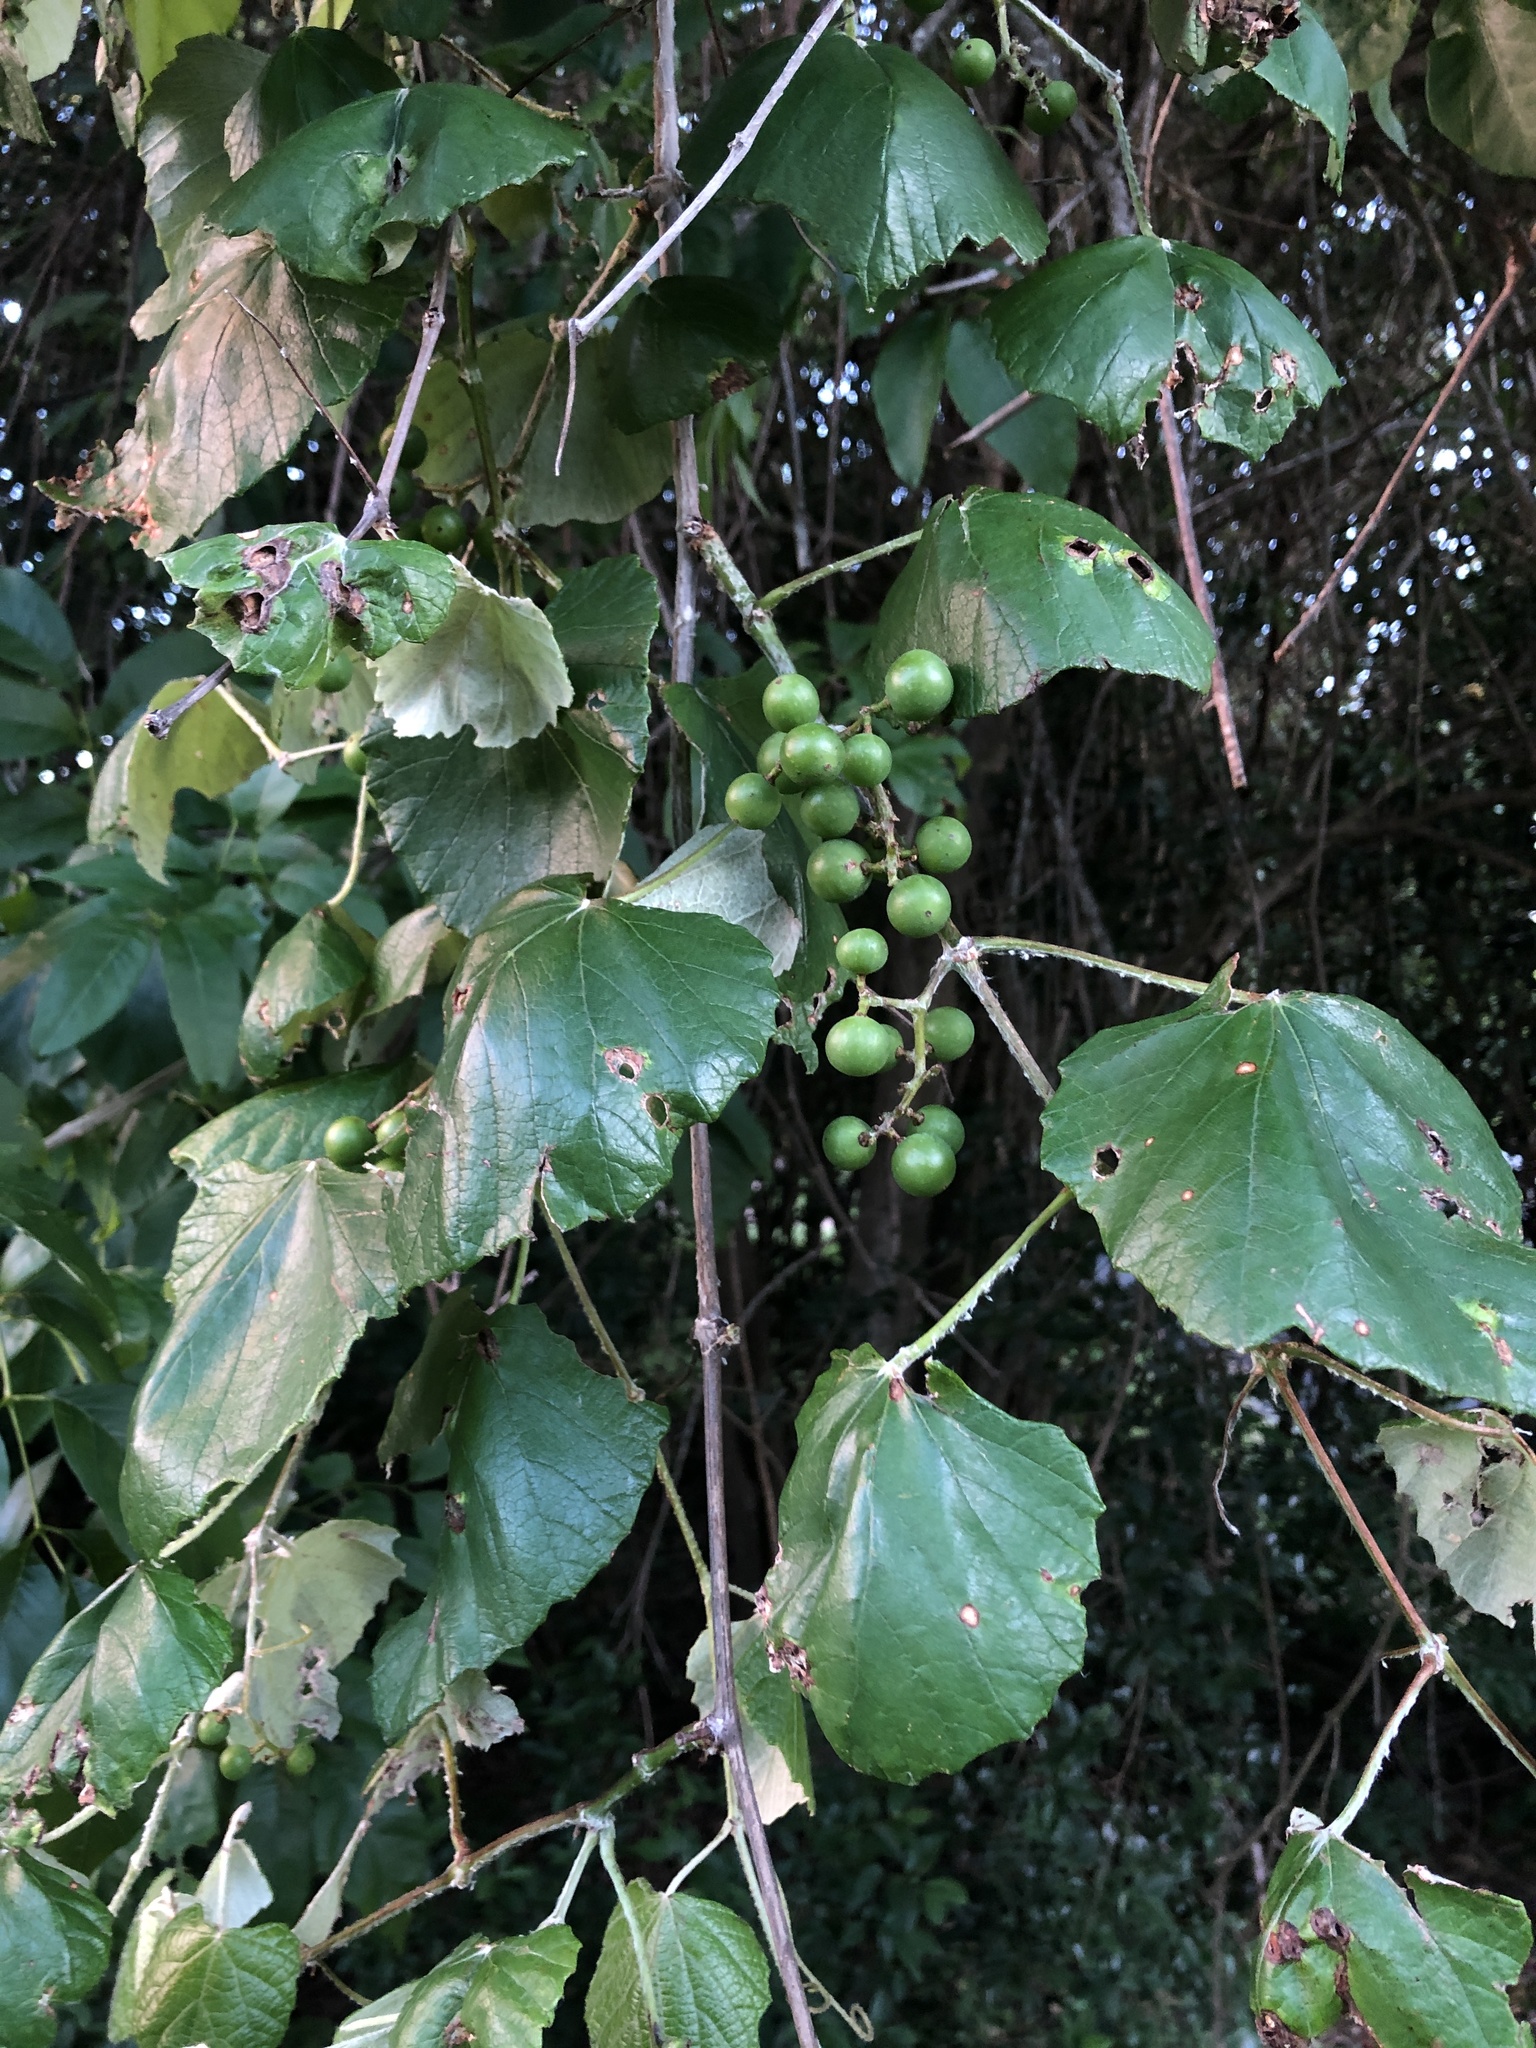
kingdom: Plantae
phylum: Tracheophyta
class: Magnoliopsida
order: Vitales
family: Vitaceae
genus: Vitis
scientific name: Vitis mustangensis
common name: Mustang grape
